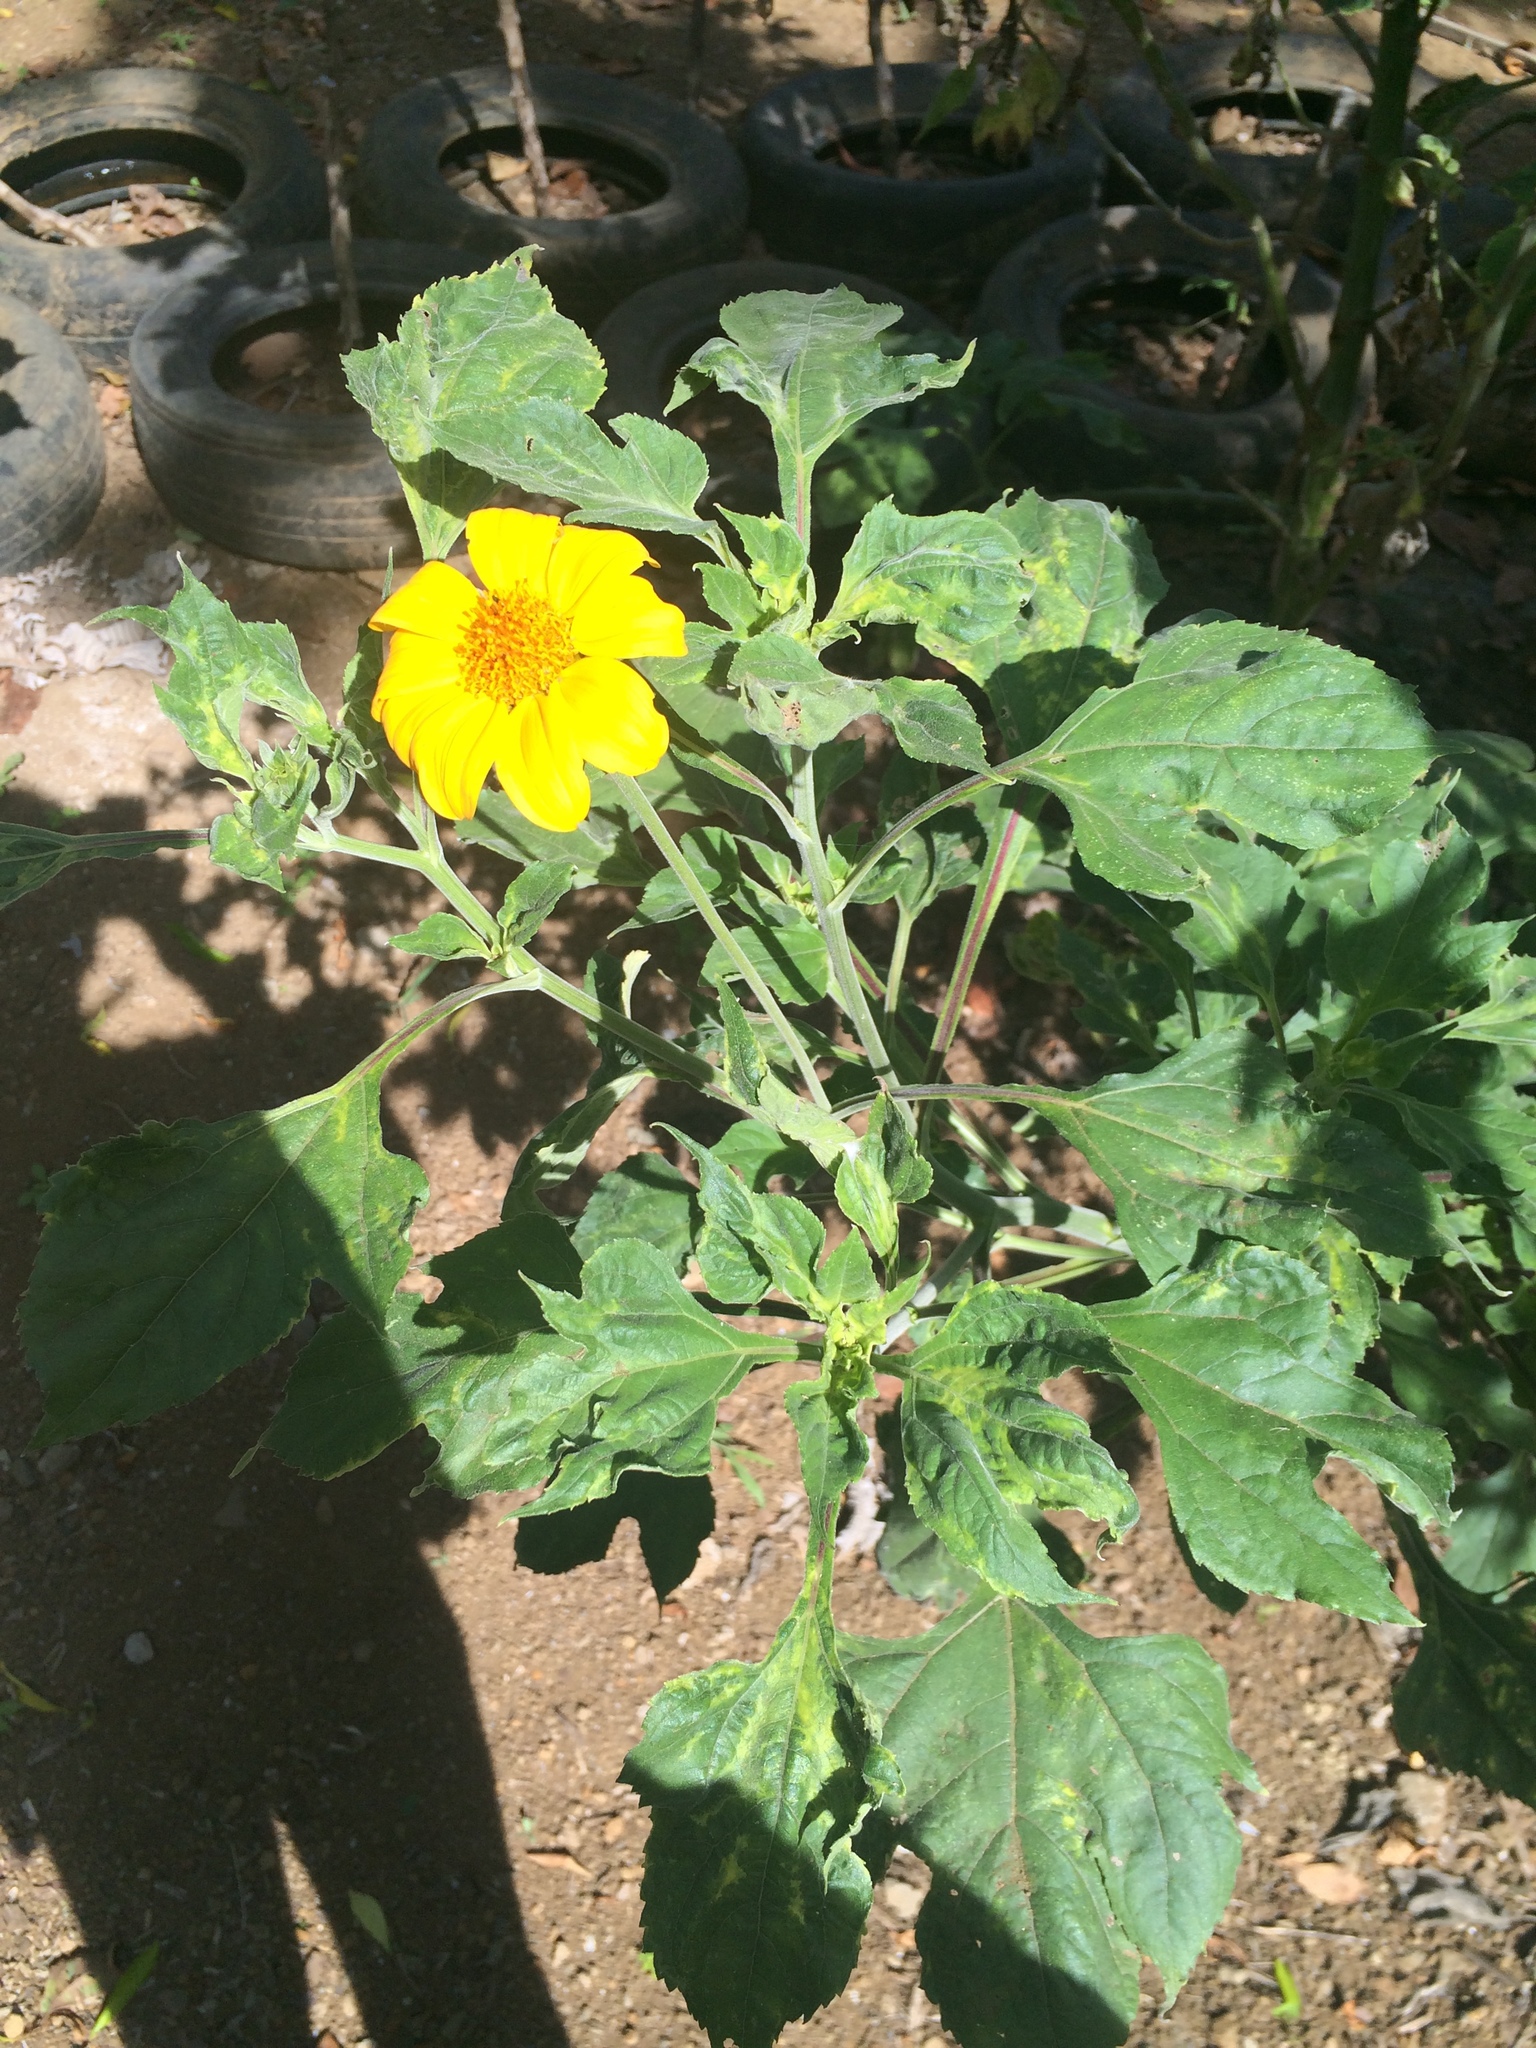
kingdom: Plantae
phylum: Tracheophyta
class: Magnoliopsida
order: Asterales
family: Asteraceae
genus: Tithonia
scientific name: Tithonia diversifolia
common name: Tree marigold
